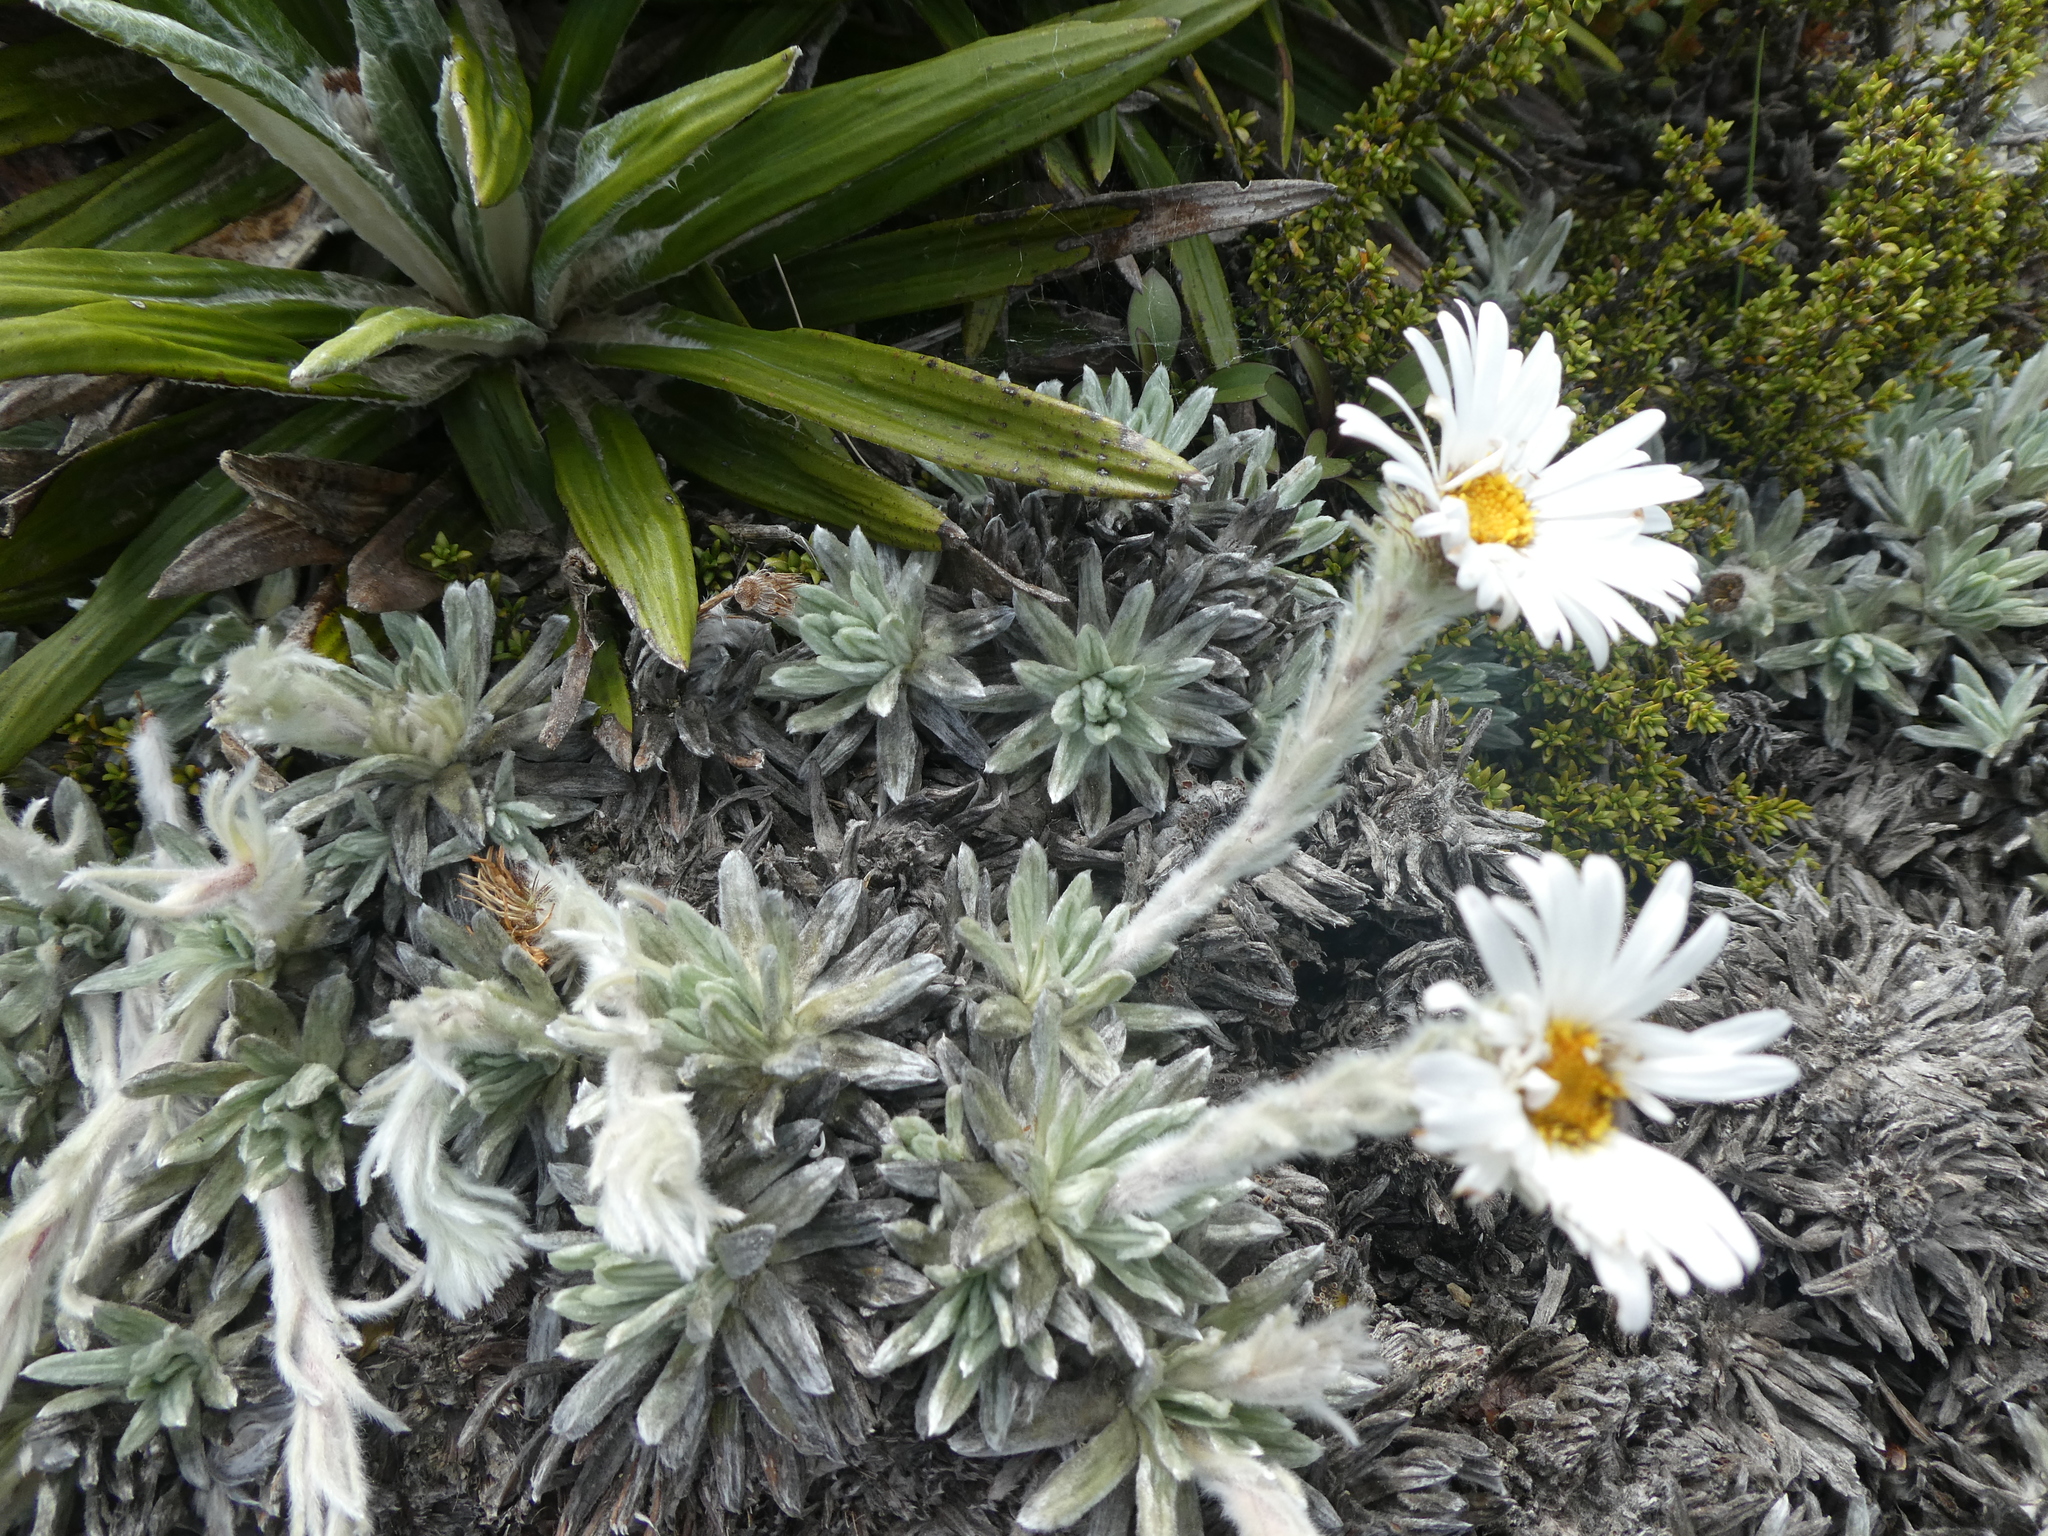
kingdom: Plantae
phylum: Tracheophyta
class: Magnoliopsida
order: Asterales
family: Asteraceae
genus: Celmisia
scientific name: Celmisia macmahonii
